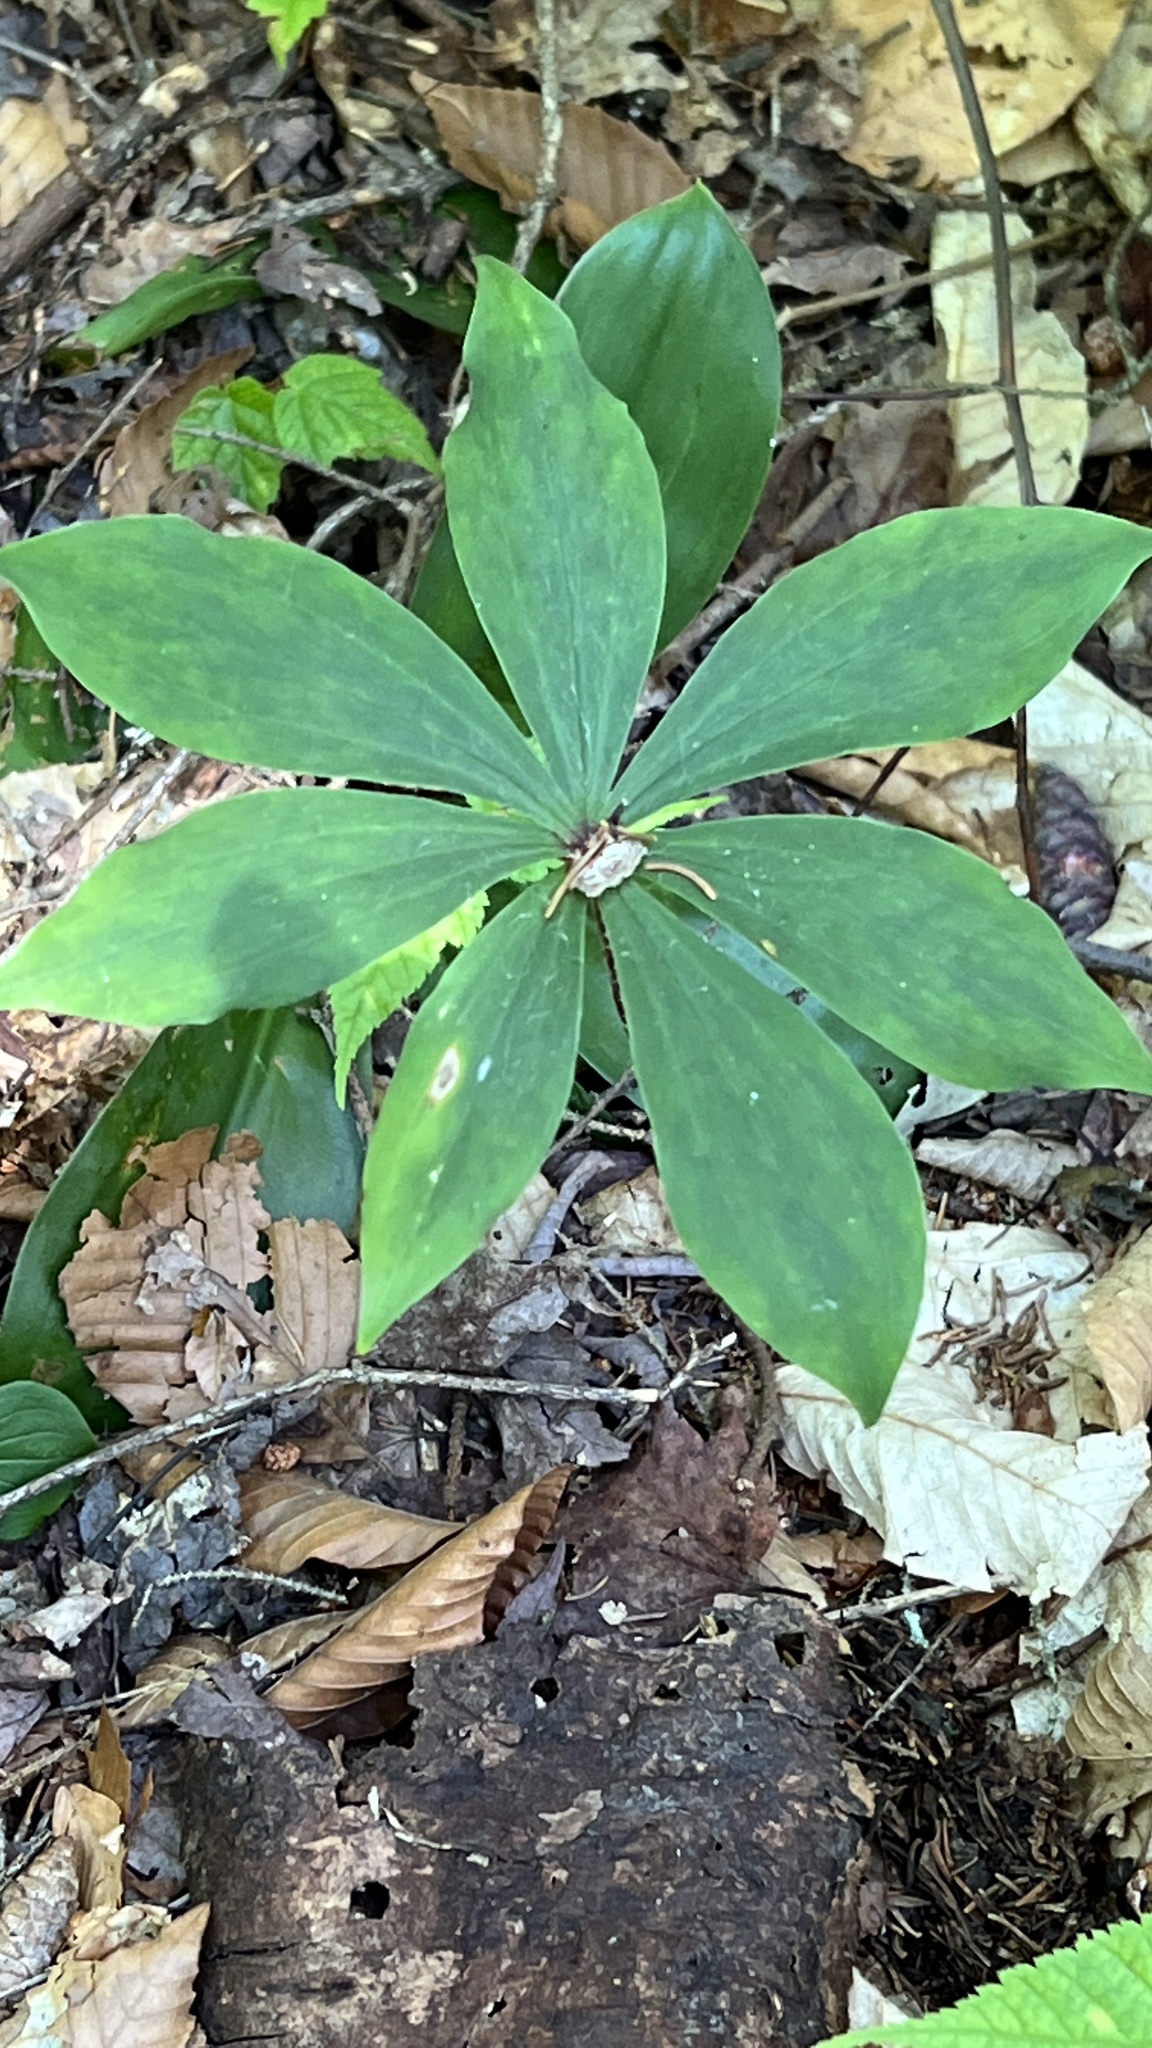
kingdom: Plantae
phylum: Tracheophyta
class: Liliopsida
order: Liliales
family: Liliaceae
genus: Medeola
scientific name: Medeola virginiana
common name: Indian cucumber-root
